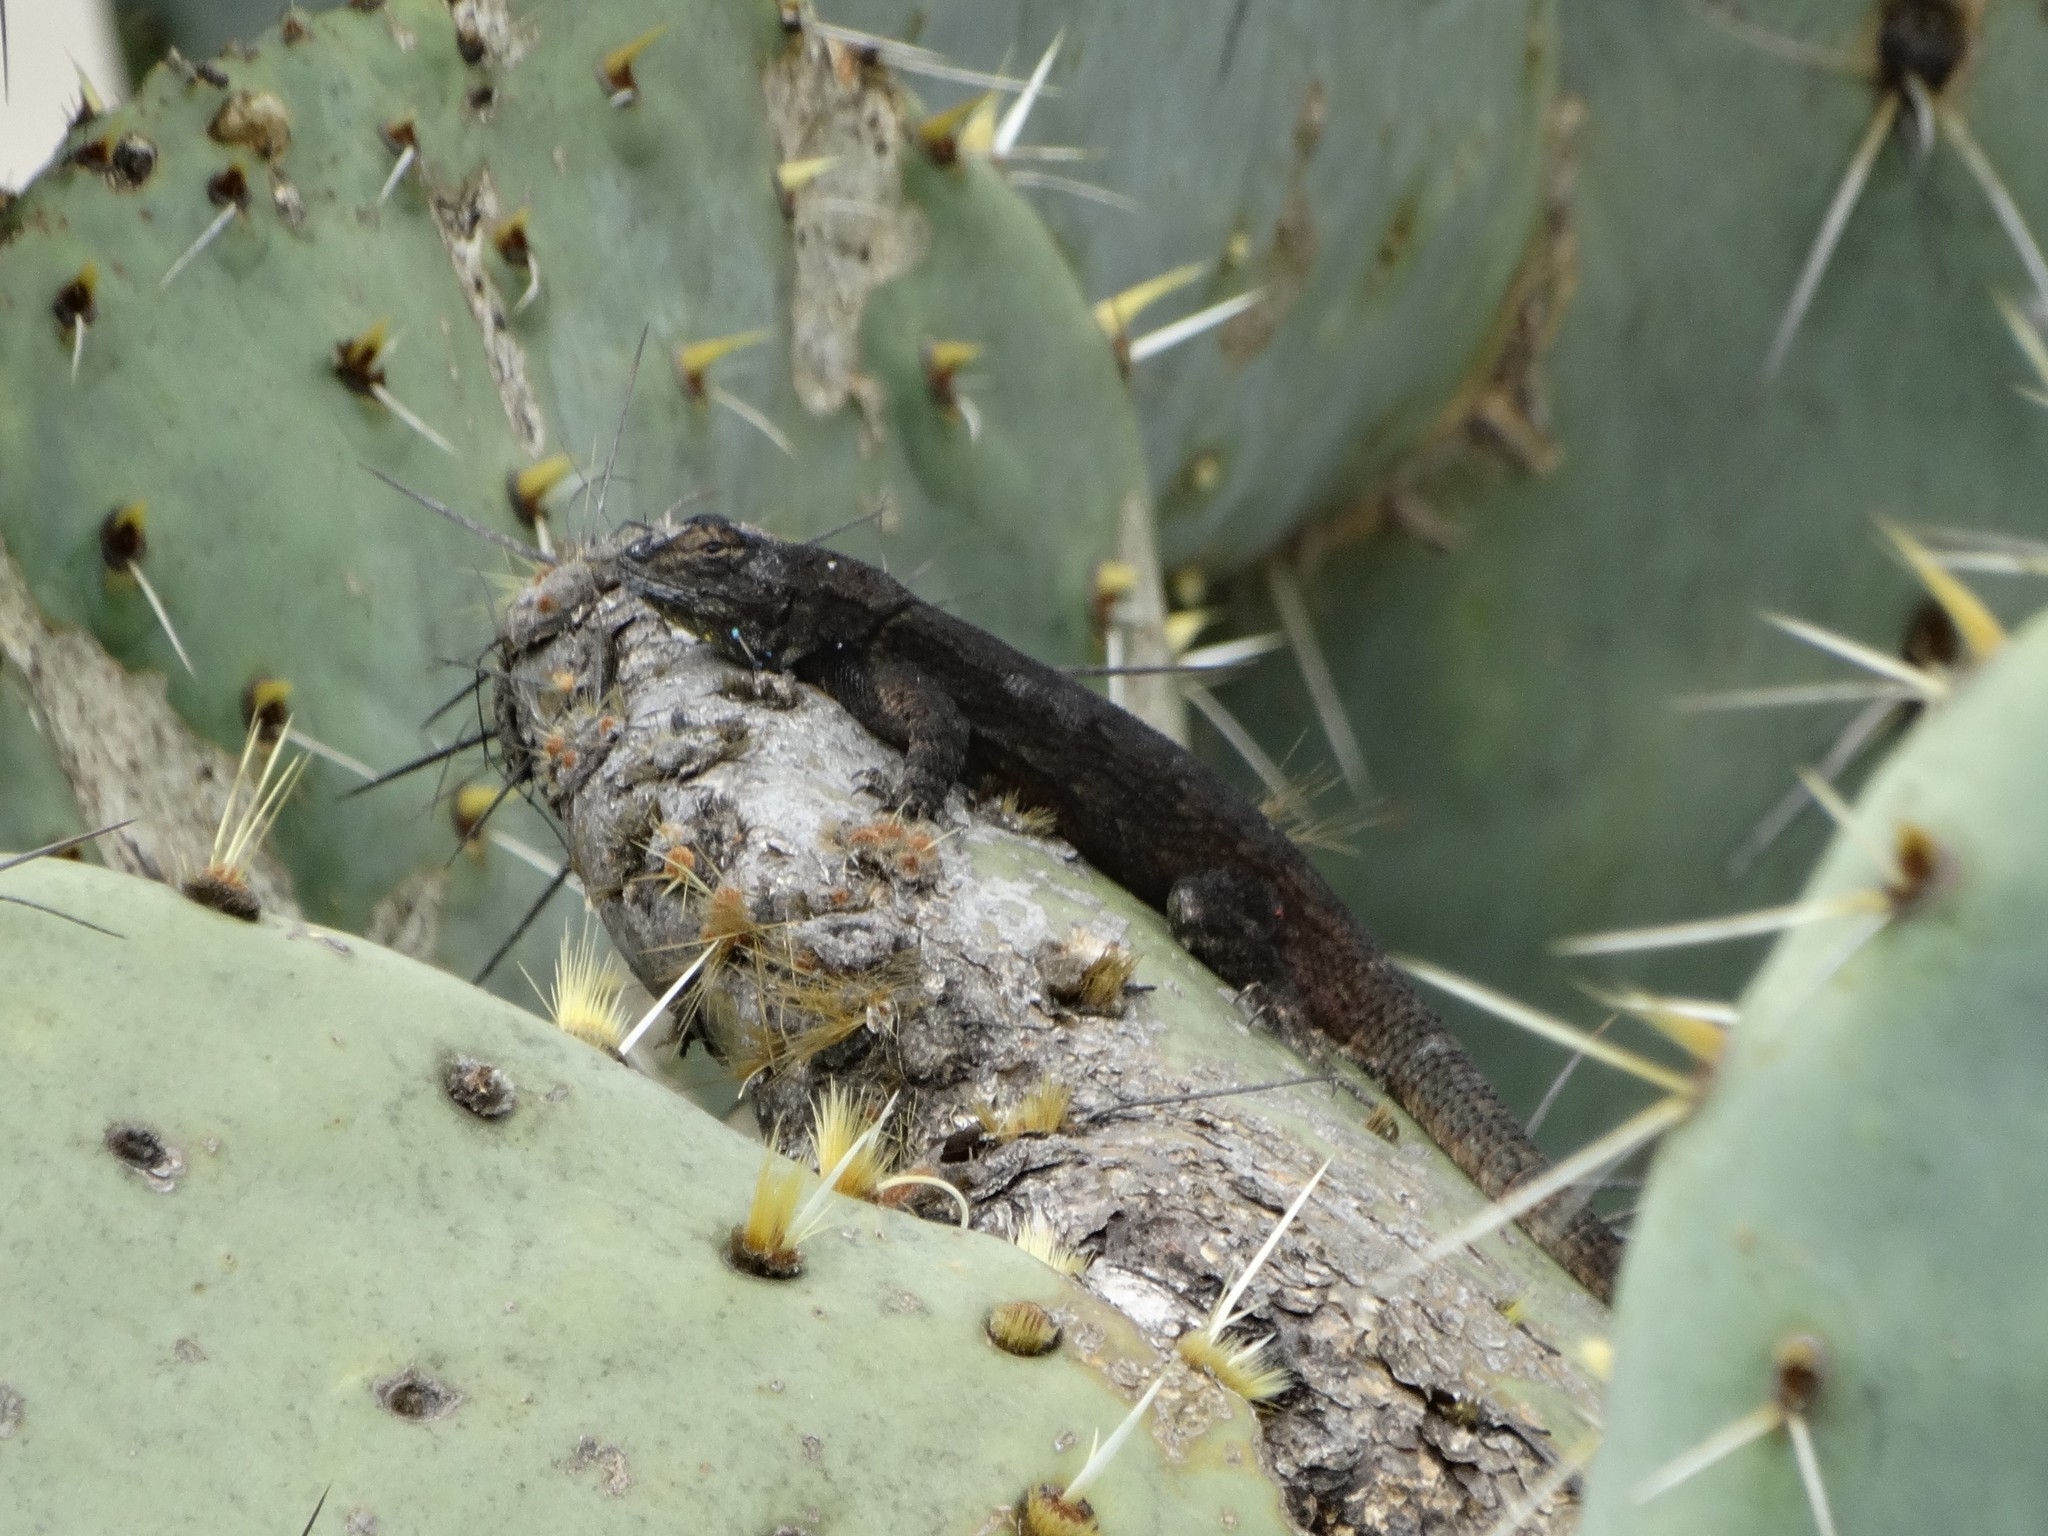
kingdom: Animalia
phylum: Chordata
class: Squamata
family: Phrynosomatidae
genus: Sceloporus
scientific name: Sceloporus grammicus
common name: Mesquite lizard
